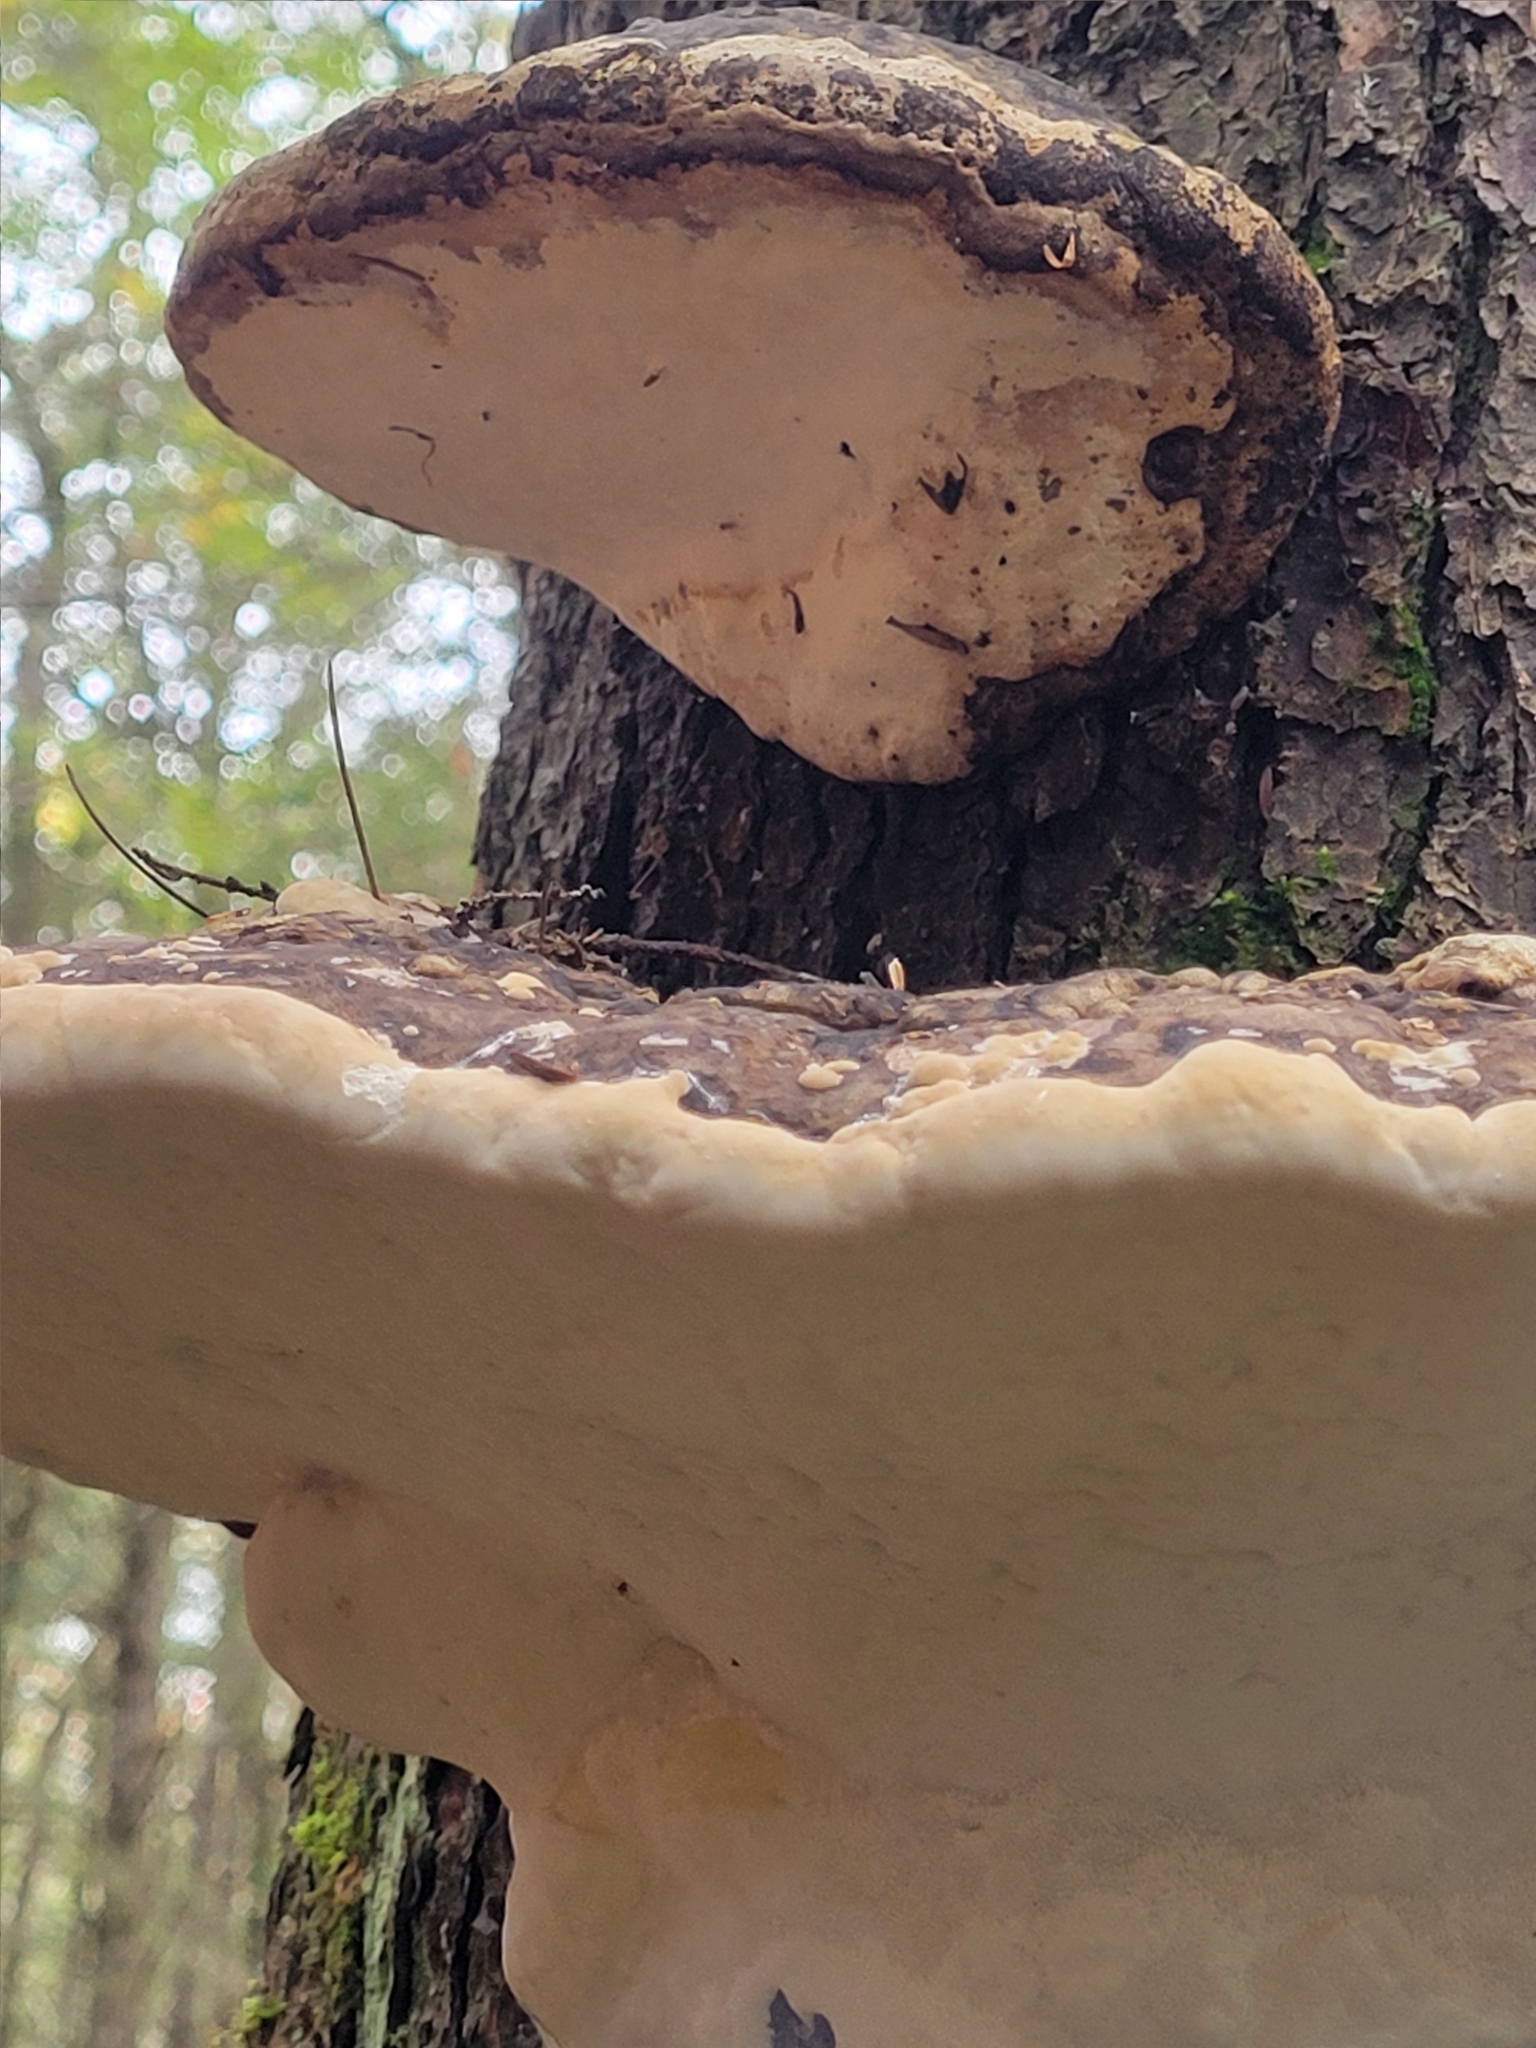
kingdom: Fungi
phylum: Basidiomycota
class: Agaricomycetes
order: Polyporales
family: Fomitopsidaceae
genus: Fomitopsis
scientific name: Fomitopsis ochracea
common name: American brown fomitopsis
